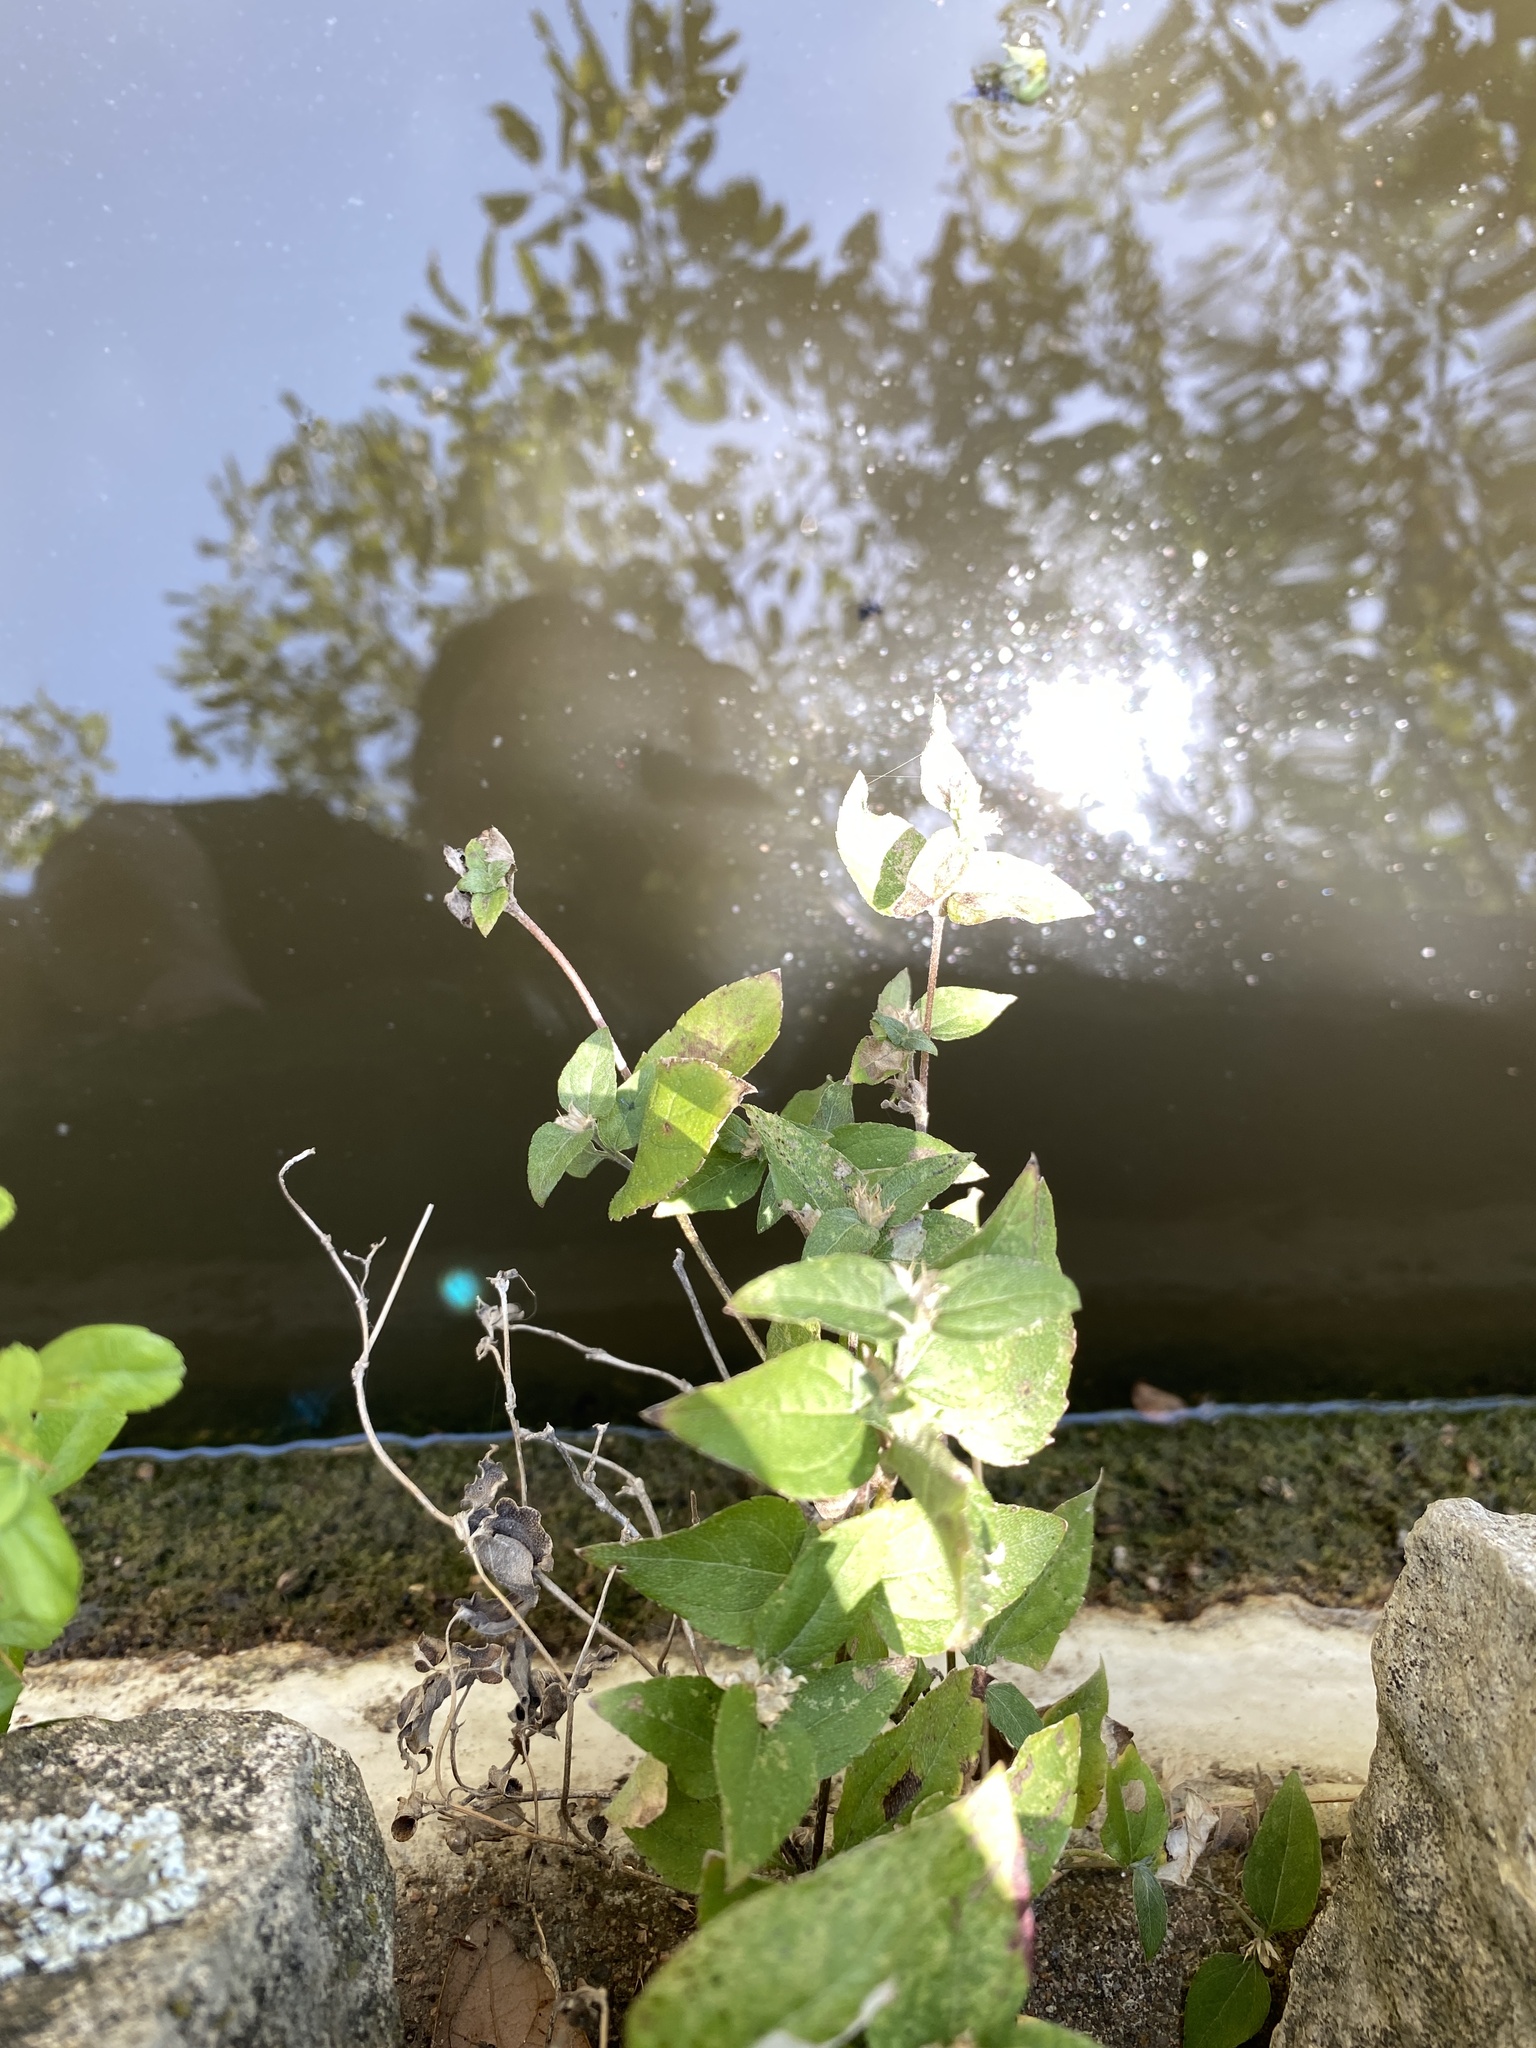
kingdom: Plantae
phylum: Tracheophyta
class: Magnoliopsida
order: Asterales
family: Asteraceae
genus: Calyptocarpus
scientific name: Calyptocarpus vialis
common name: Straggler daisy
